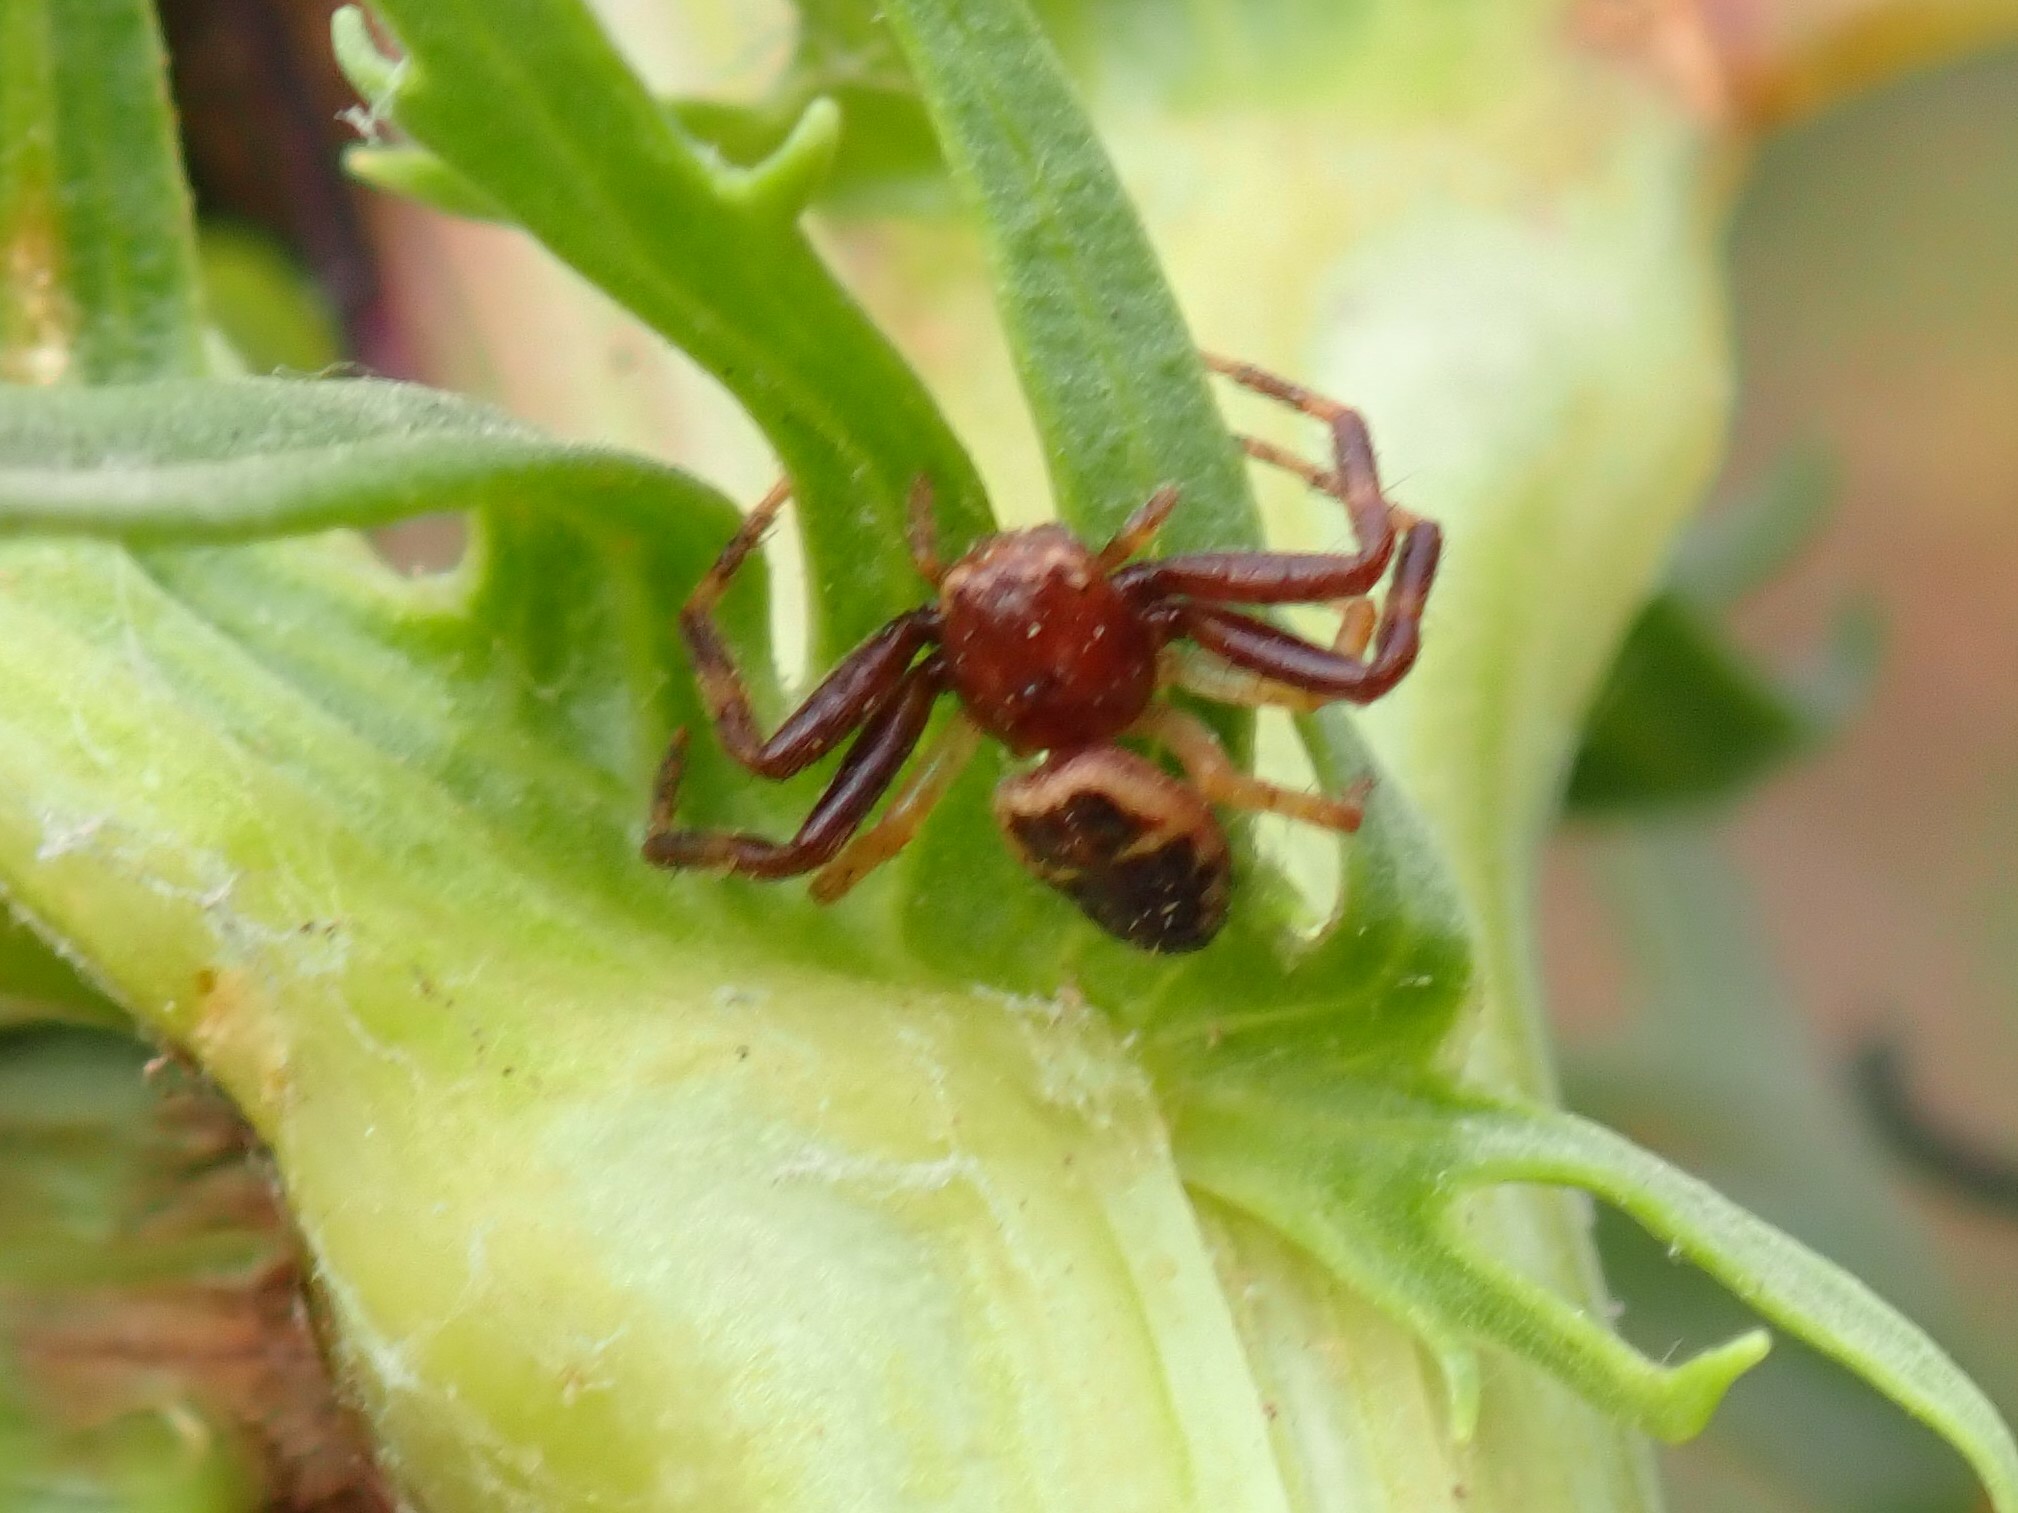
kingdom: Animalia
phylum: Arthropoda
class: Arachnida
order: Araneae
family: Thomisidae
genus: Synema
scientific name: Synema globosum
